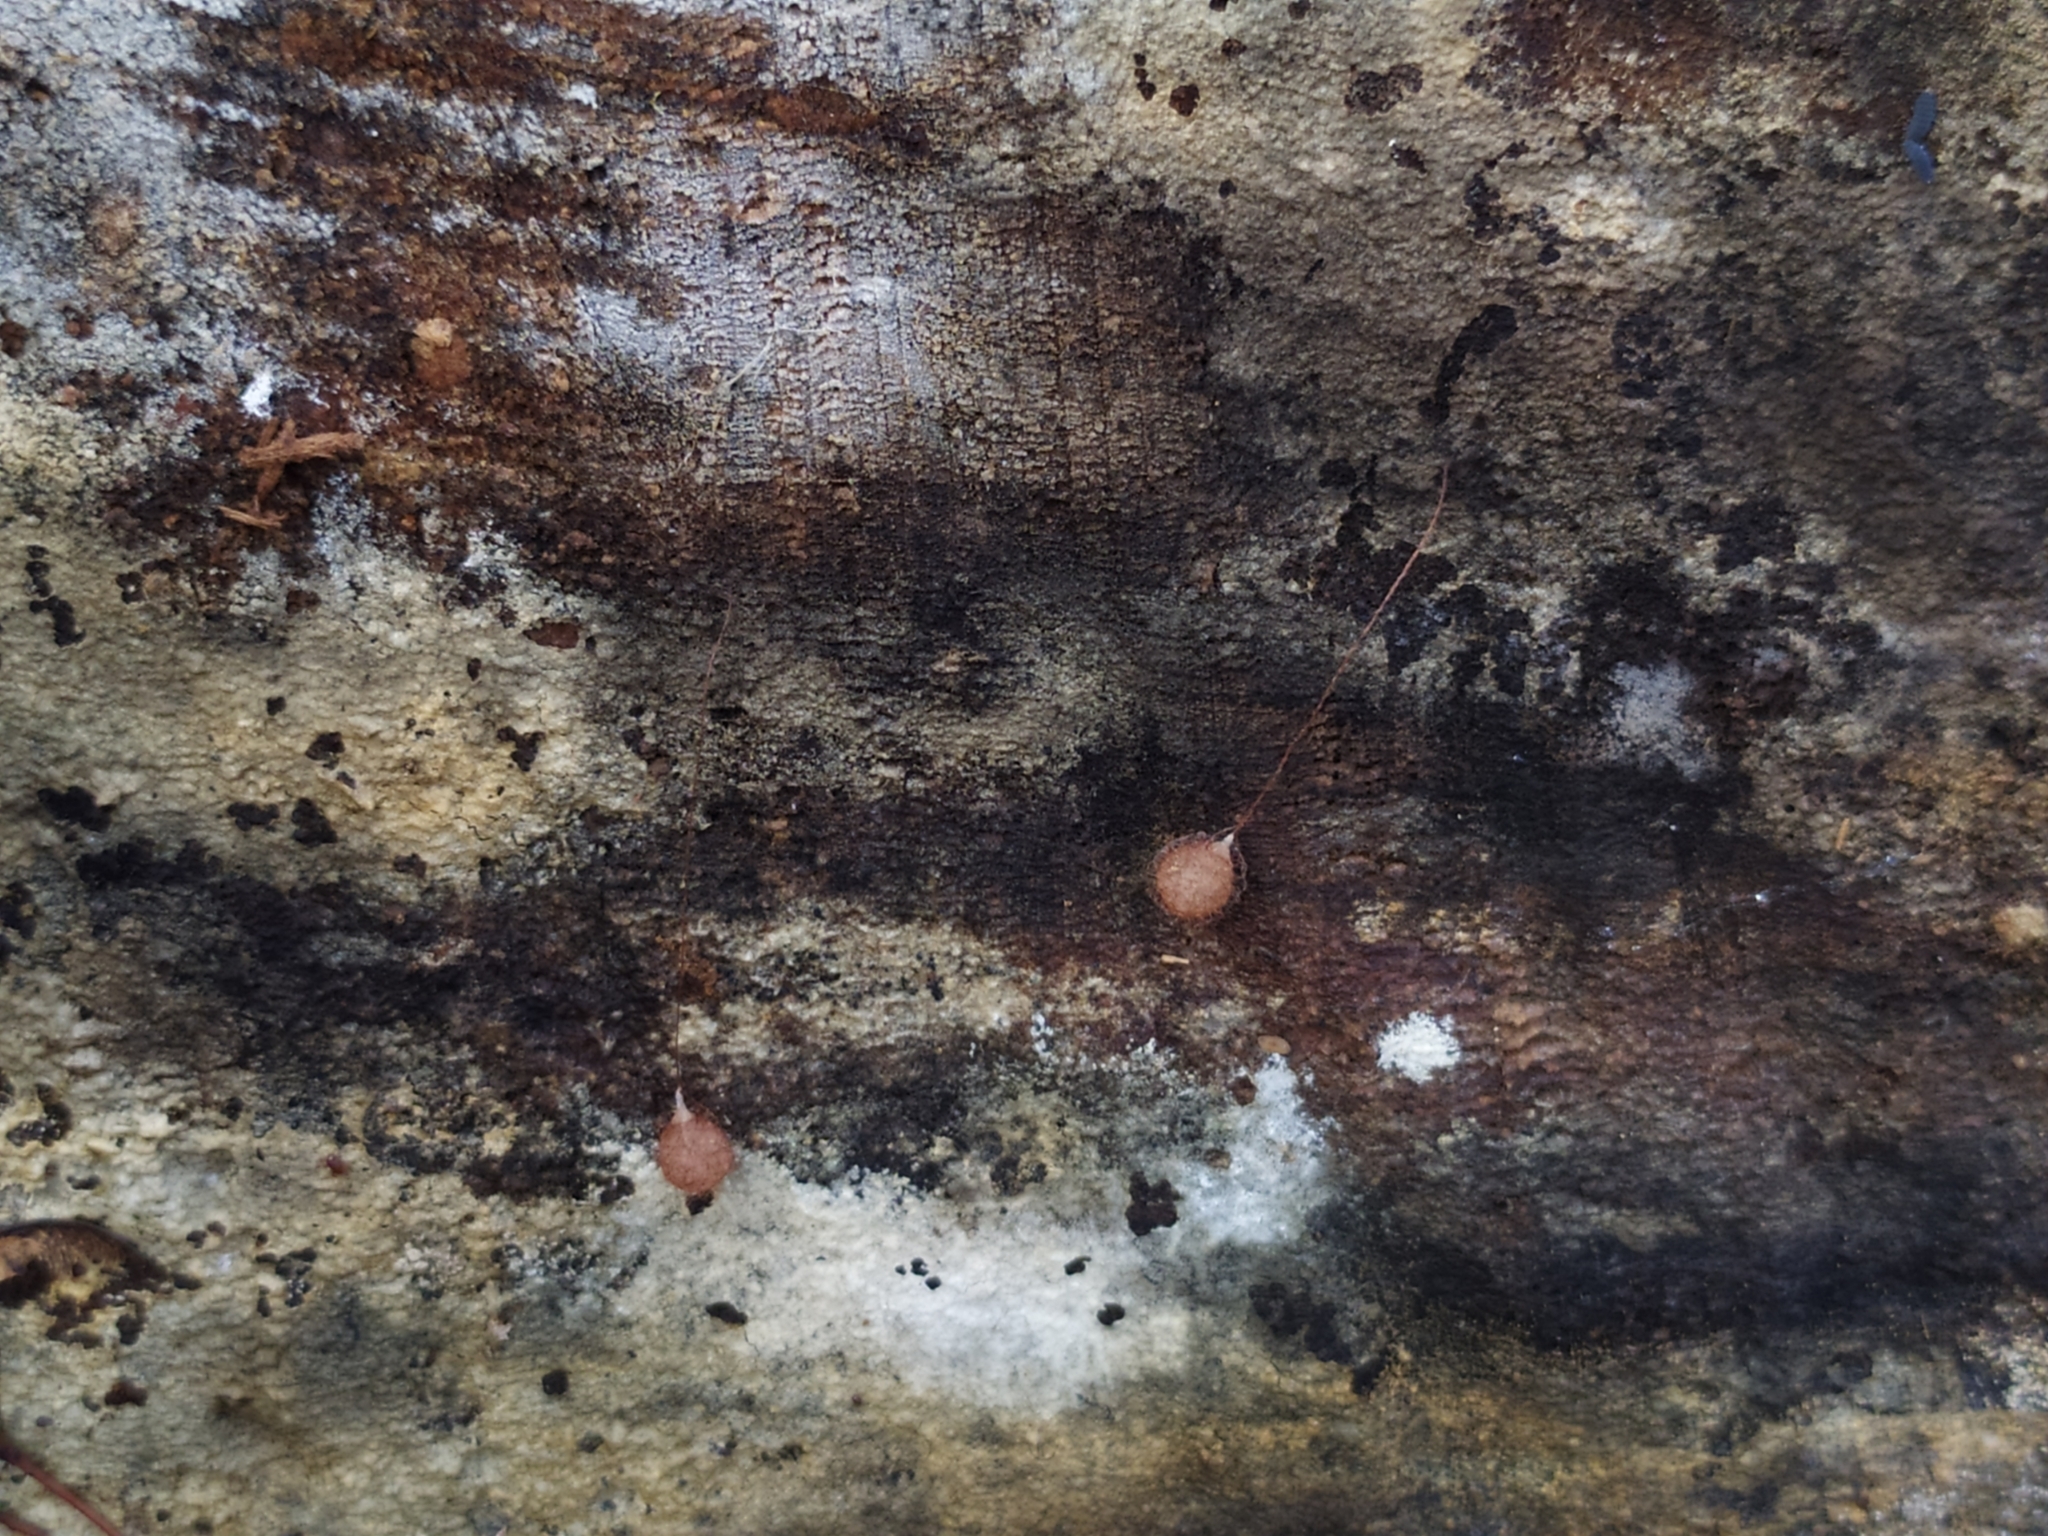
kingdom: Animalia
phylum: Arthropoda
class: Arachnida
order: Araneae
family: Mimetidae
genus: Ero
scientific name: Ero furcata
